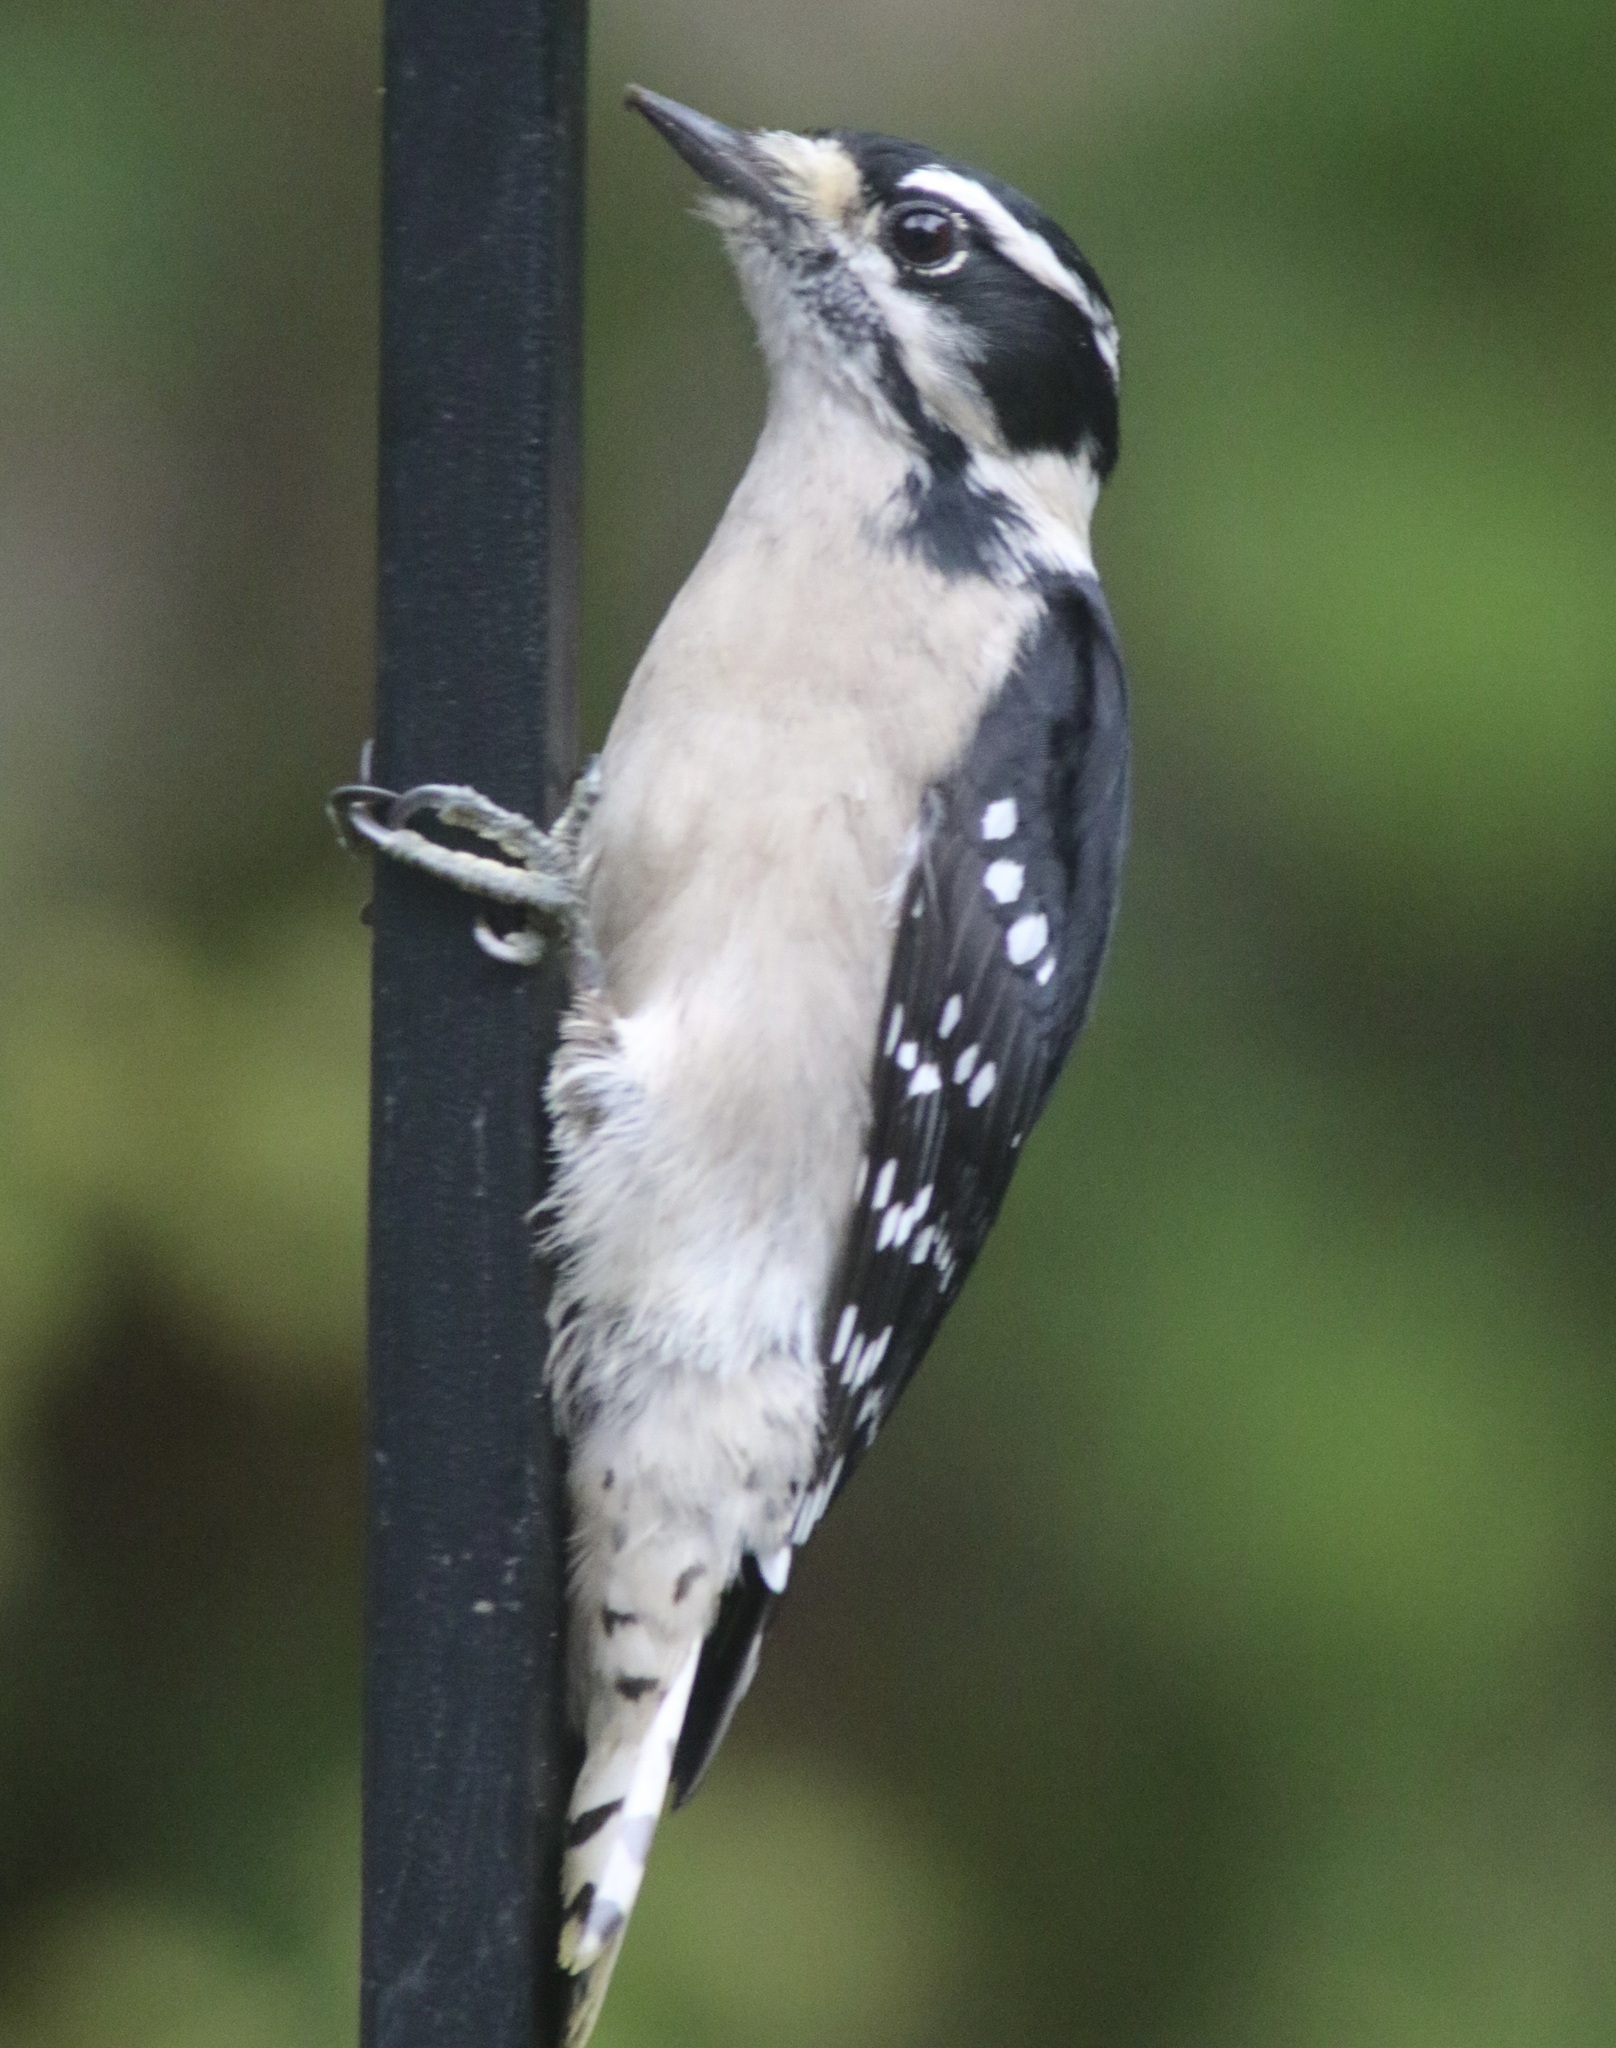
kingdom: Animalia
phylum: Chordata
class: Aves
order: Piciformes
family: Picidae
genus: Dryobates
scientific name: Dryobates pubescens
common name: Downy woodpecker
